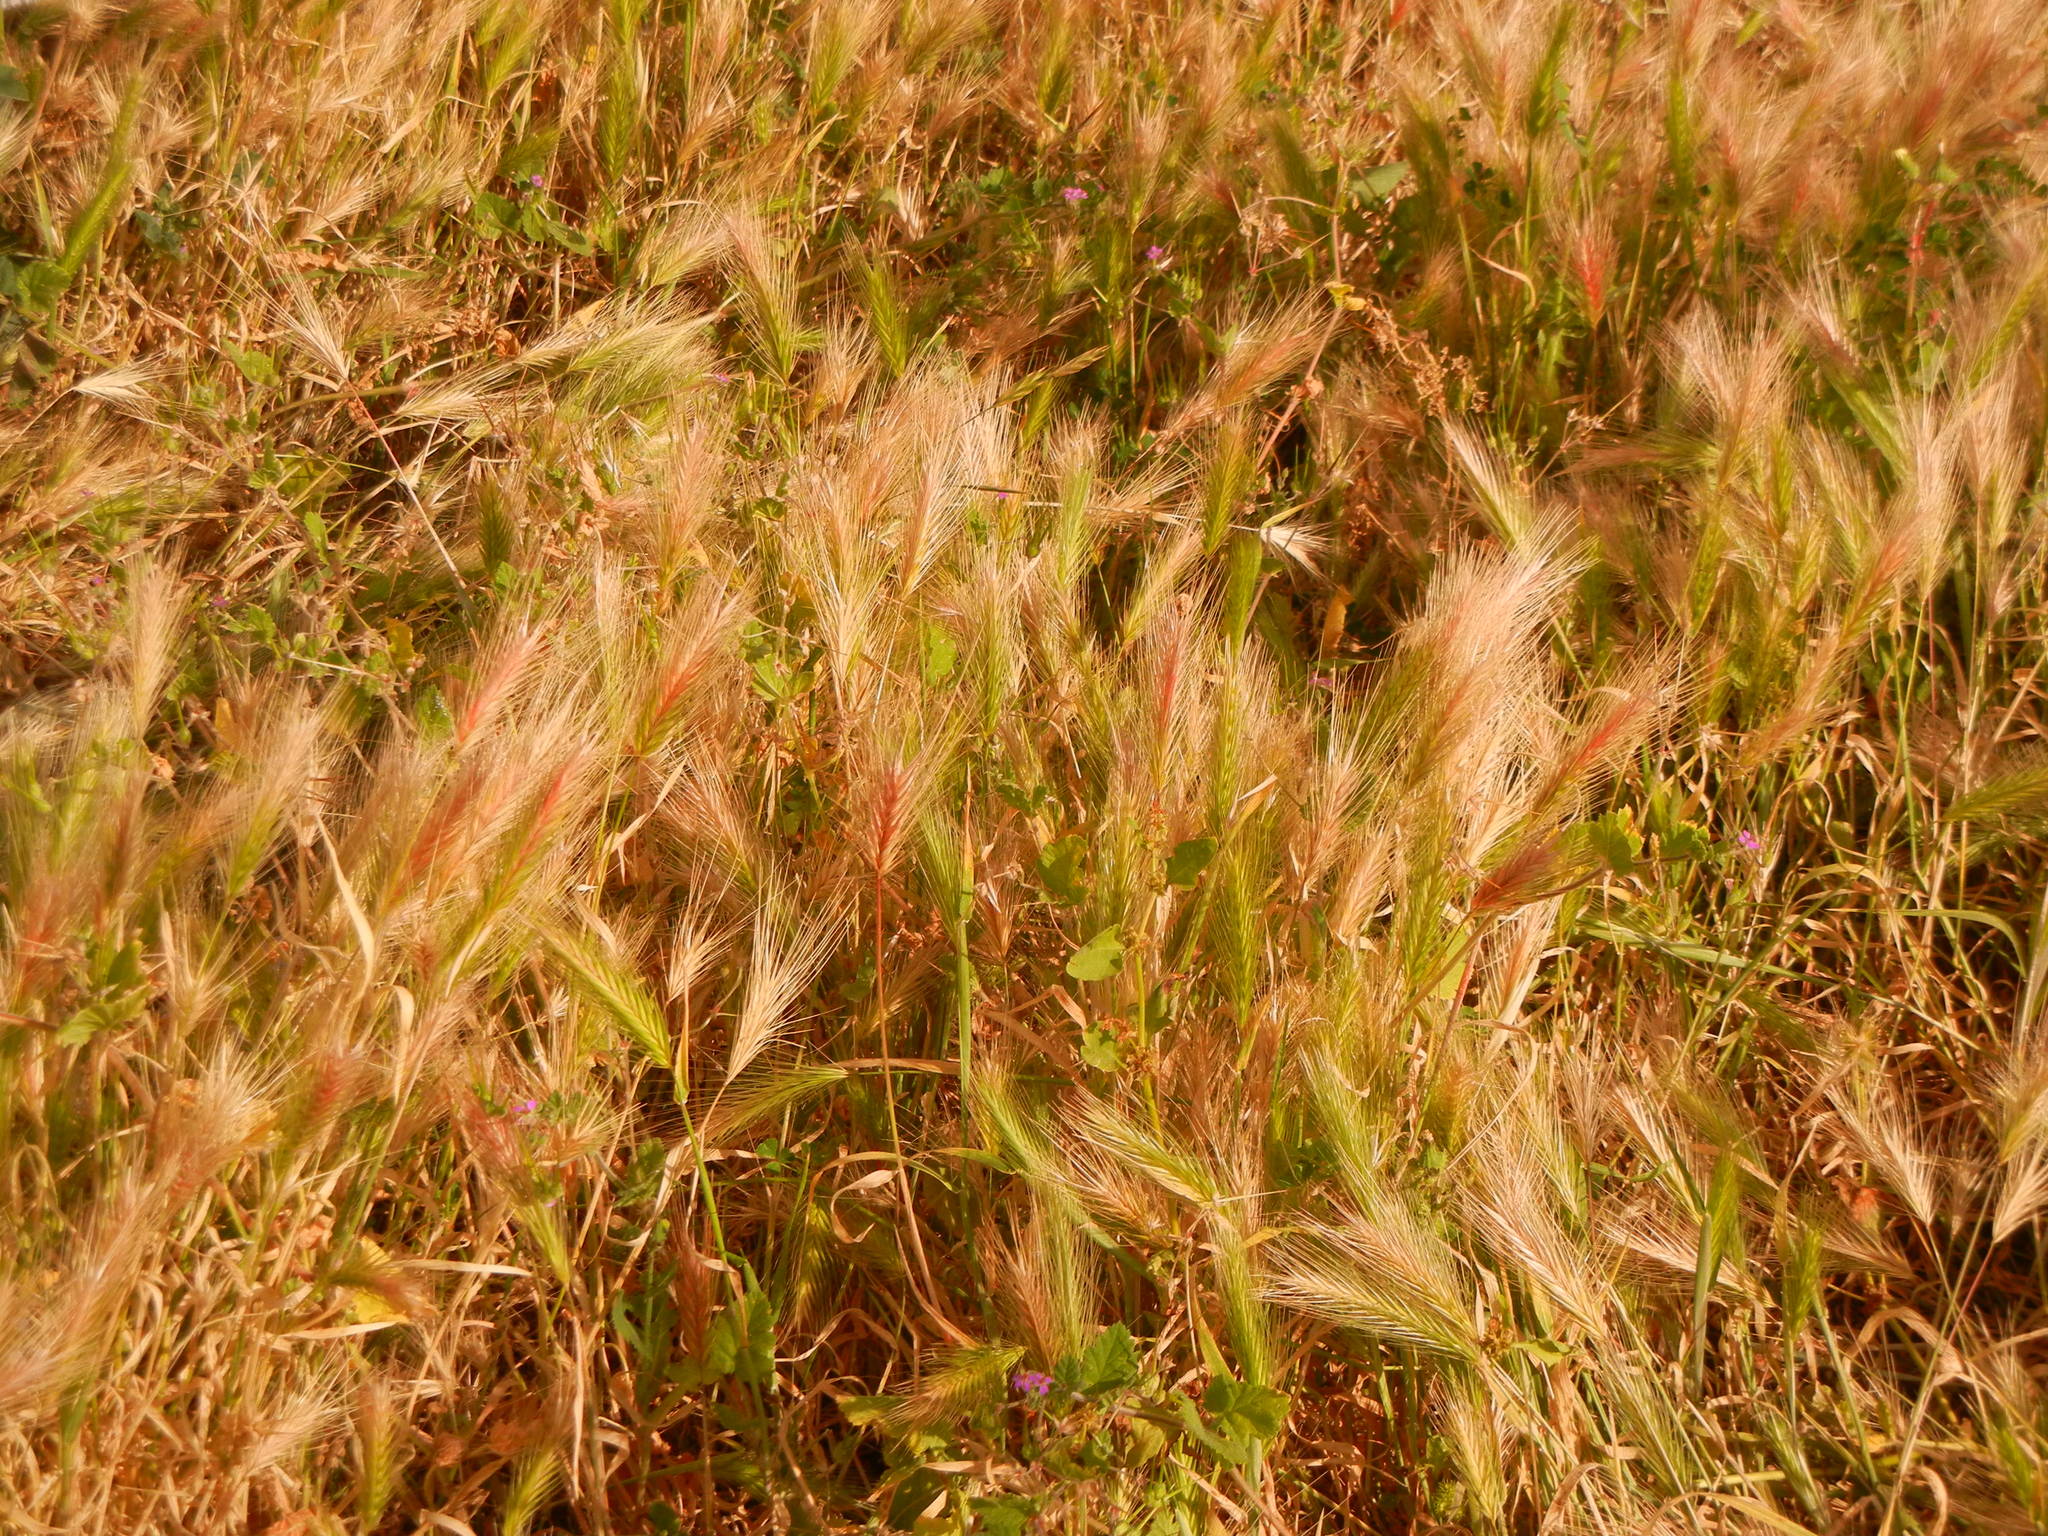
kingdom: Plantae
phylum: Tracheophyta
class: Liliopsida
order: Poales
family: Poaceae
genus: Hordeum
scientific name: Hordeum murinum
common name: Wall barley
